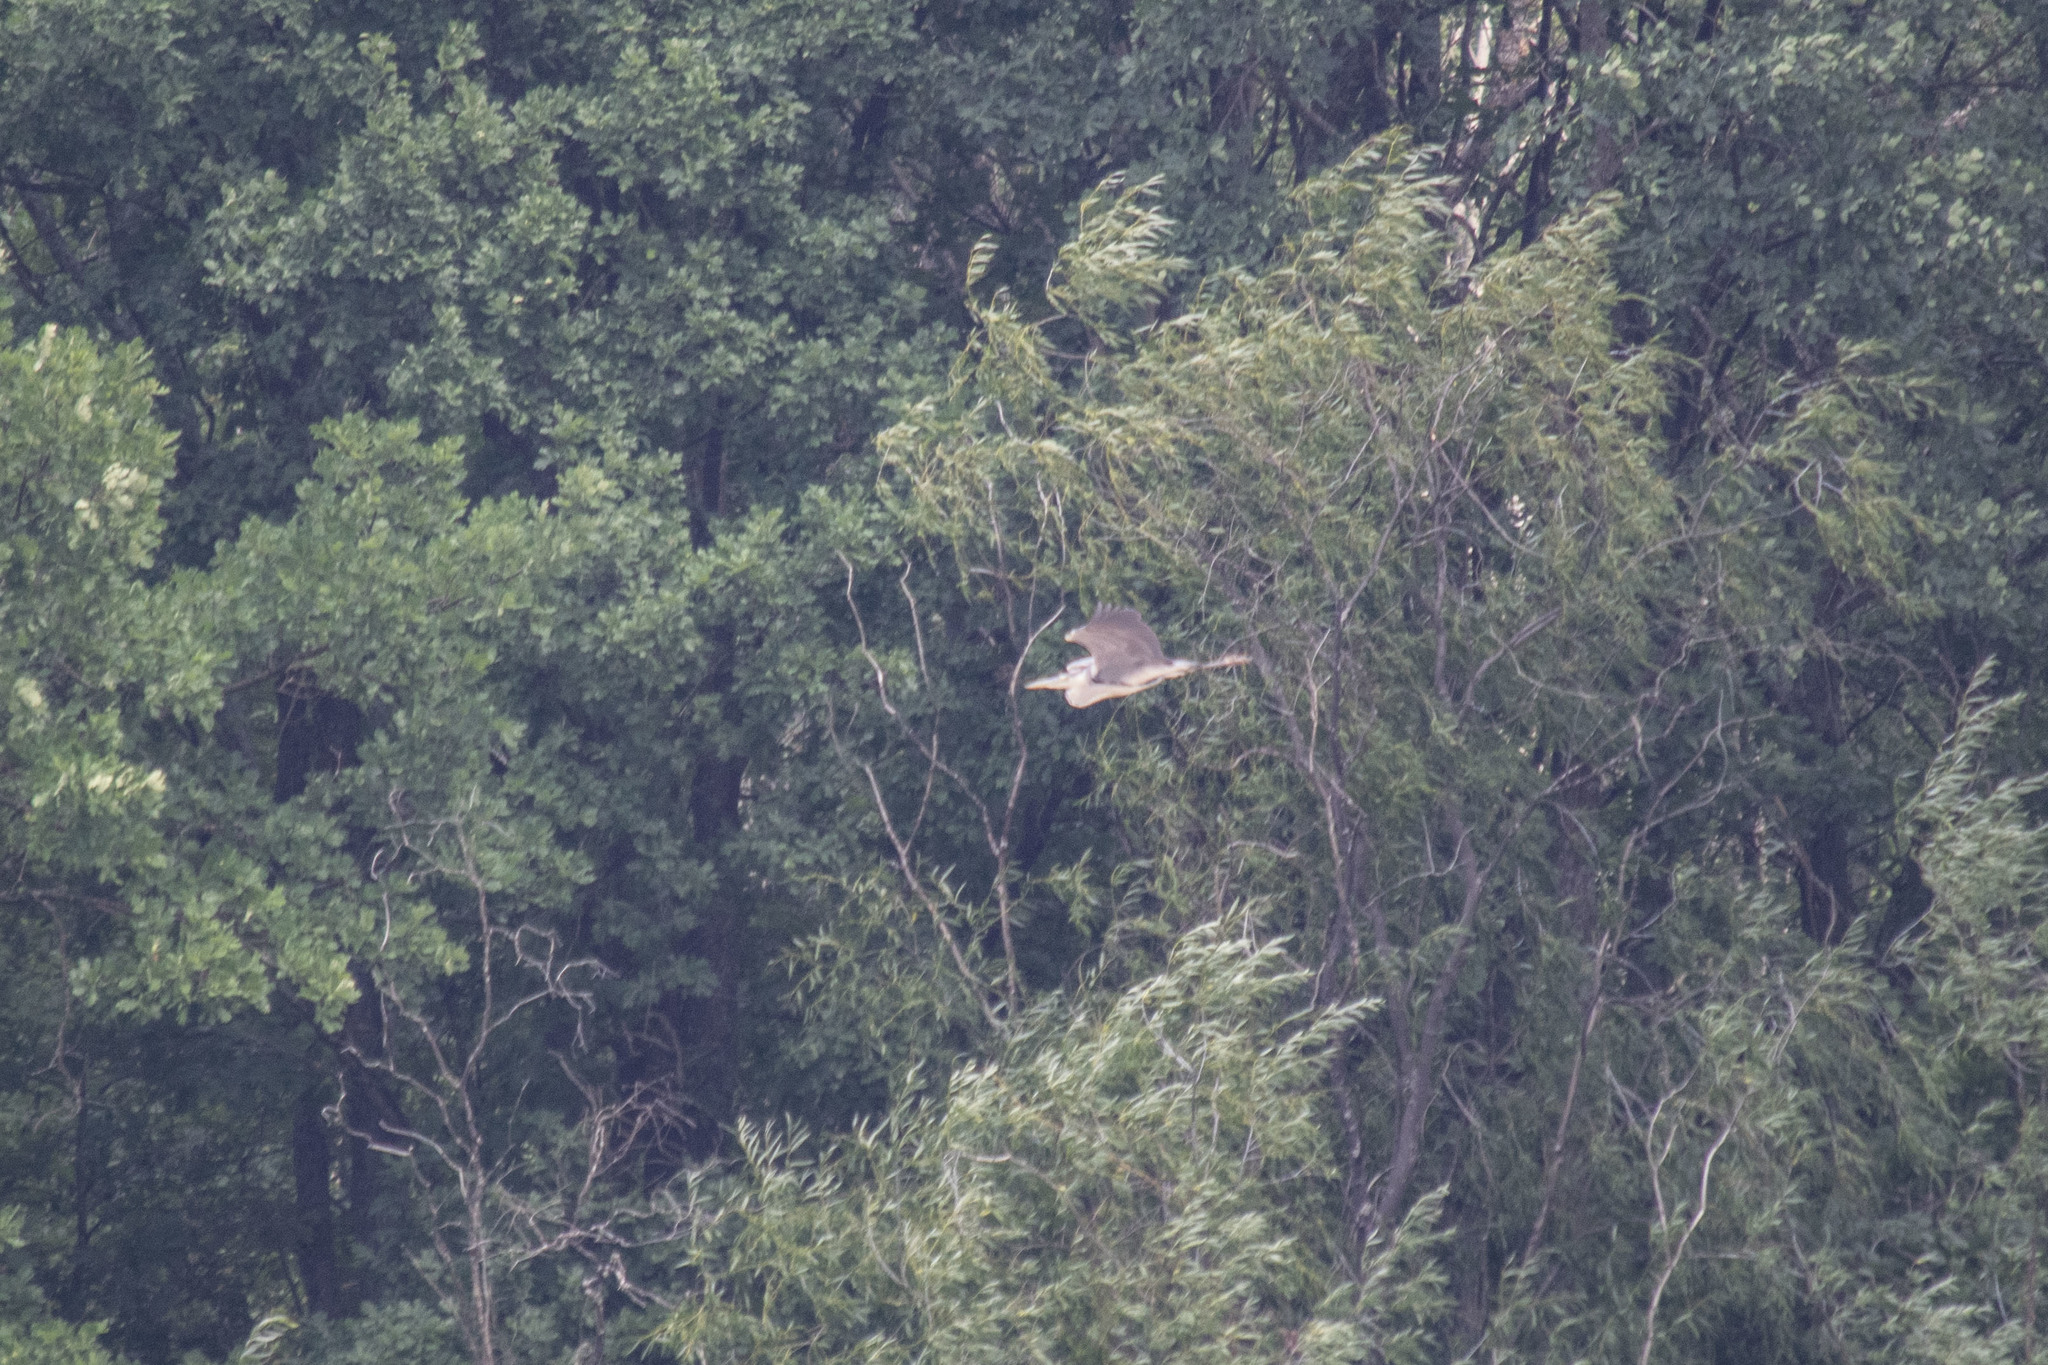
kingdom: Animalia
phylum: Chordata
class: Aves
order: Pelecaniformes
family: Ardeidae
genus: Ardea
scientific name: Ardea cinerea
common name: Grey heron
